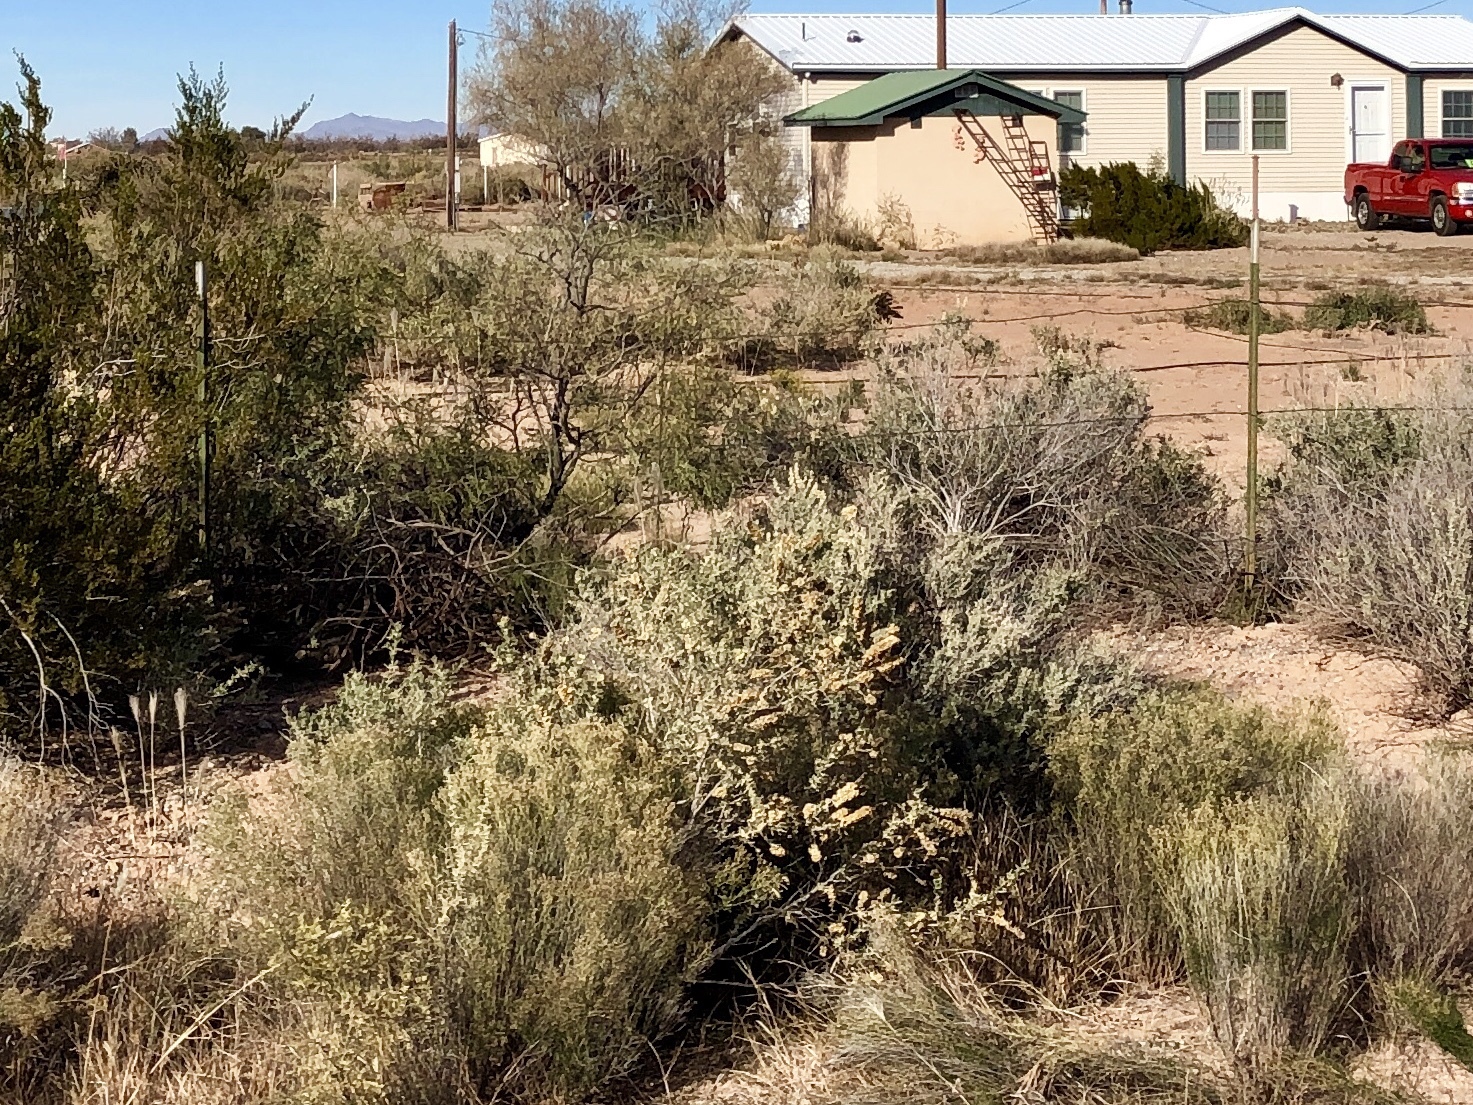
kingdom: Plantae
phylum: Tracheophyta
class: Magnoliopsida
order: Caryophyllales
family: Amaranthaceae
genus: Atriplex
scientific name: Atriplex canescens
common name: Four-wing saltbush
